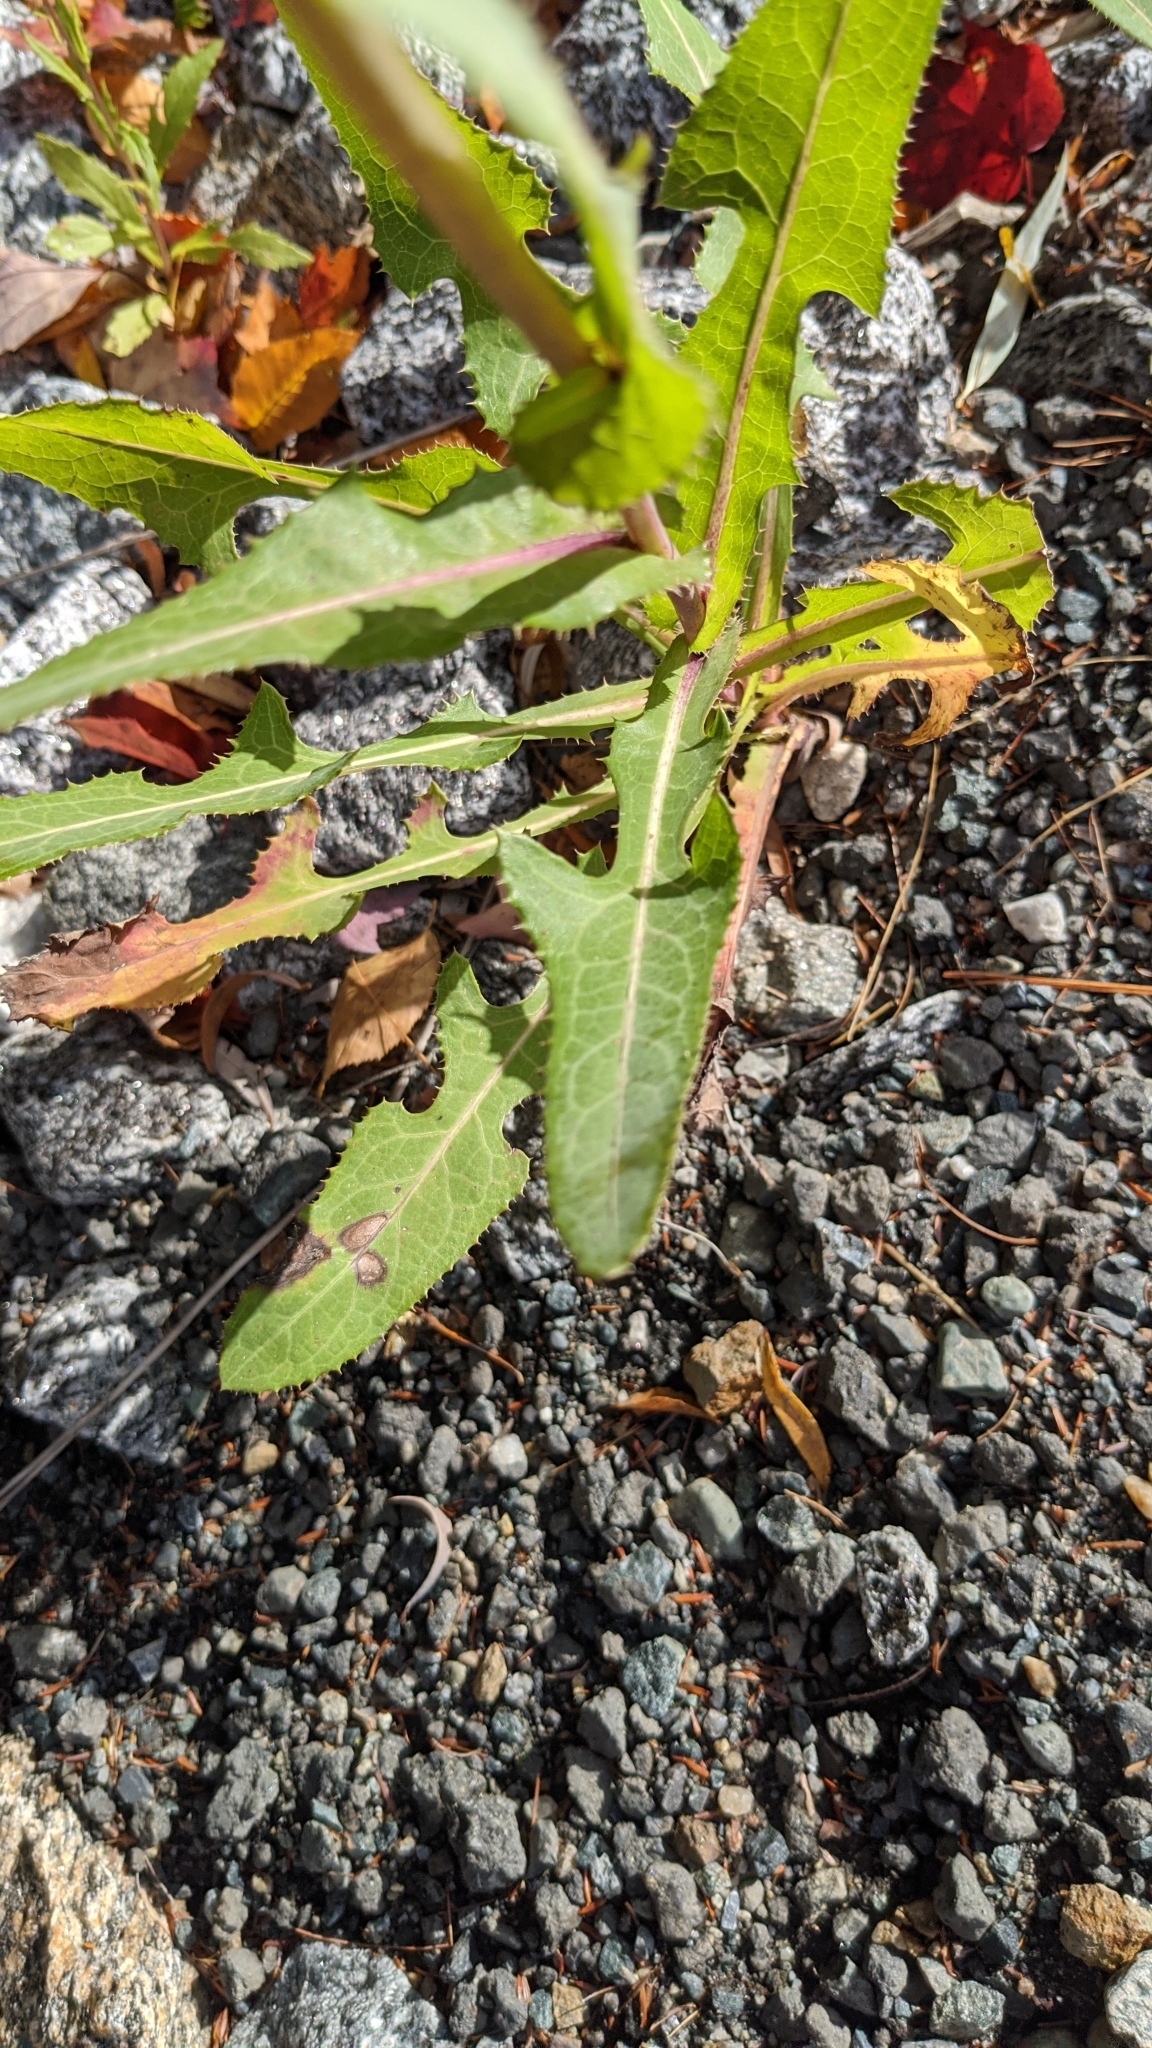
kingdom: Plantae
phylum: Tracheophyta
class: Magnoliopsida
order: Asterales
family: Asteraceae
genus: Sonchus
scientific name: Sonchus arvensis
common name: Perennial sow-thistle
